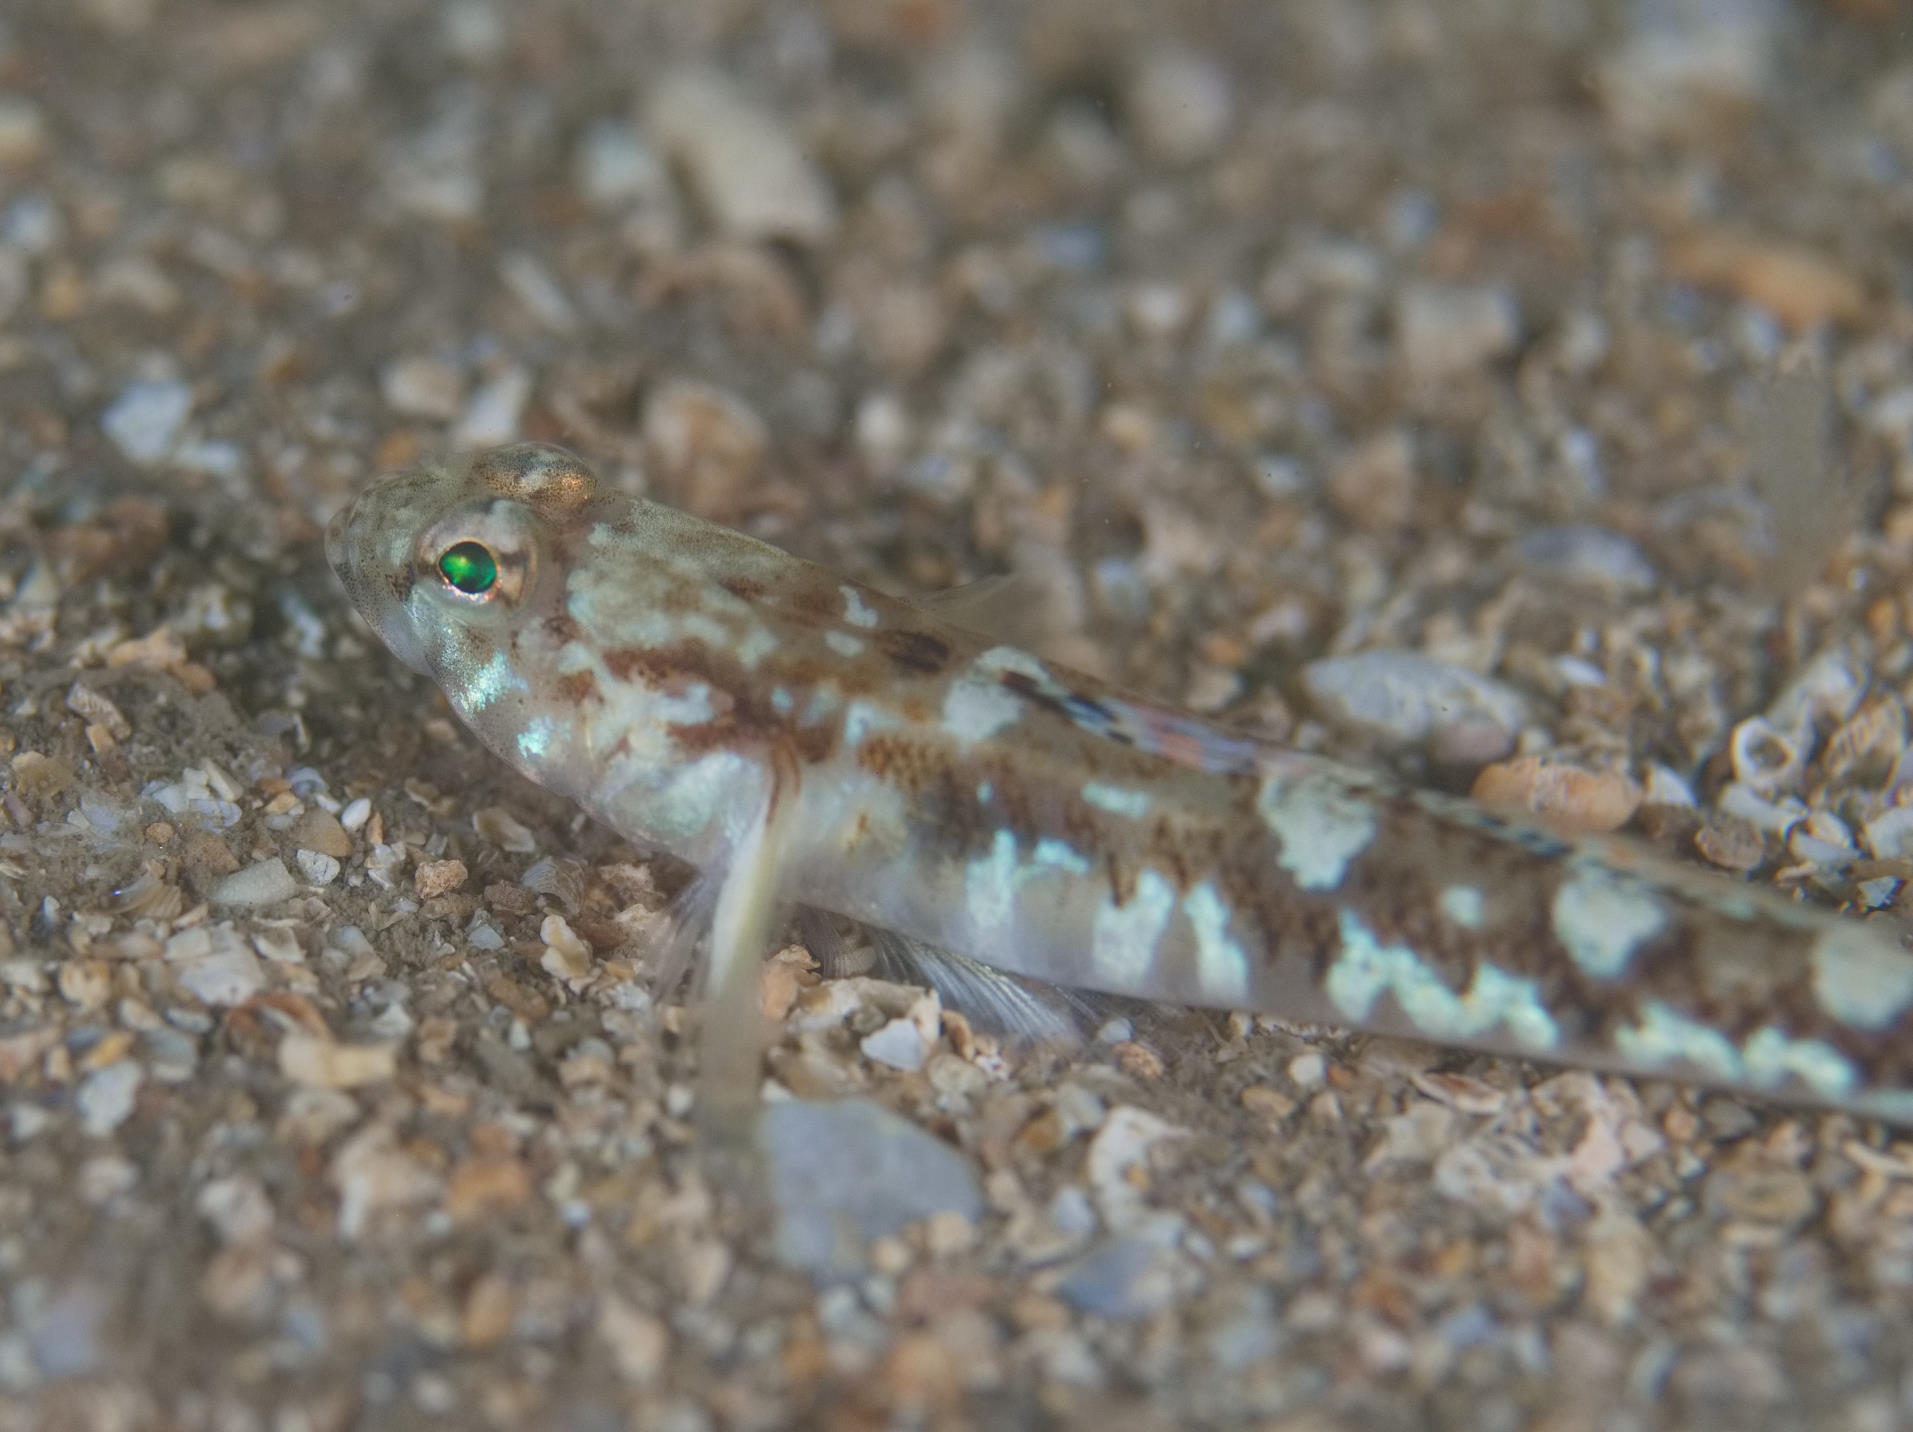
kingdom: Animalia
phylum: Chordata
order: Perciformes
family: Gobiidae
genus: Pomatoschistus
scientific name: Pomatoschistus pictus
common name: Painted goby
